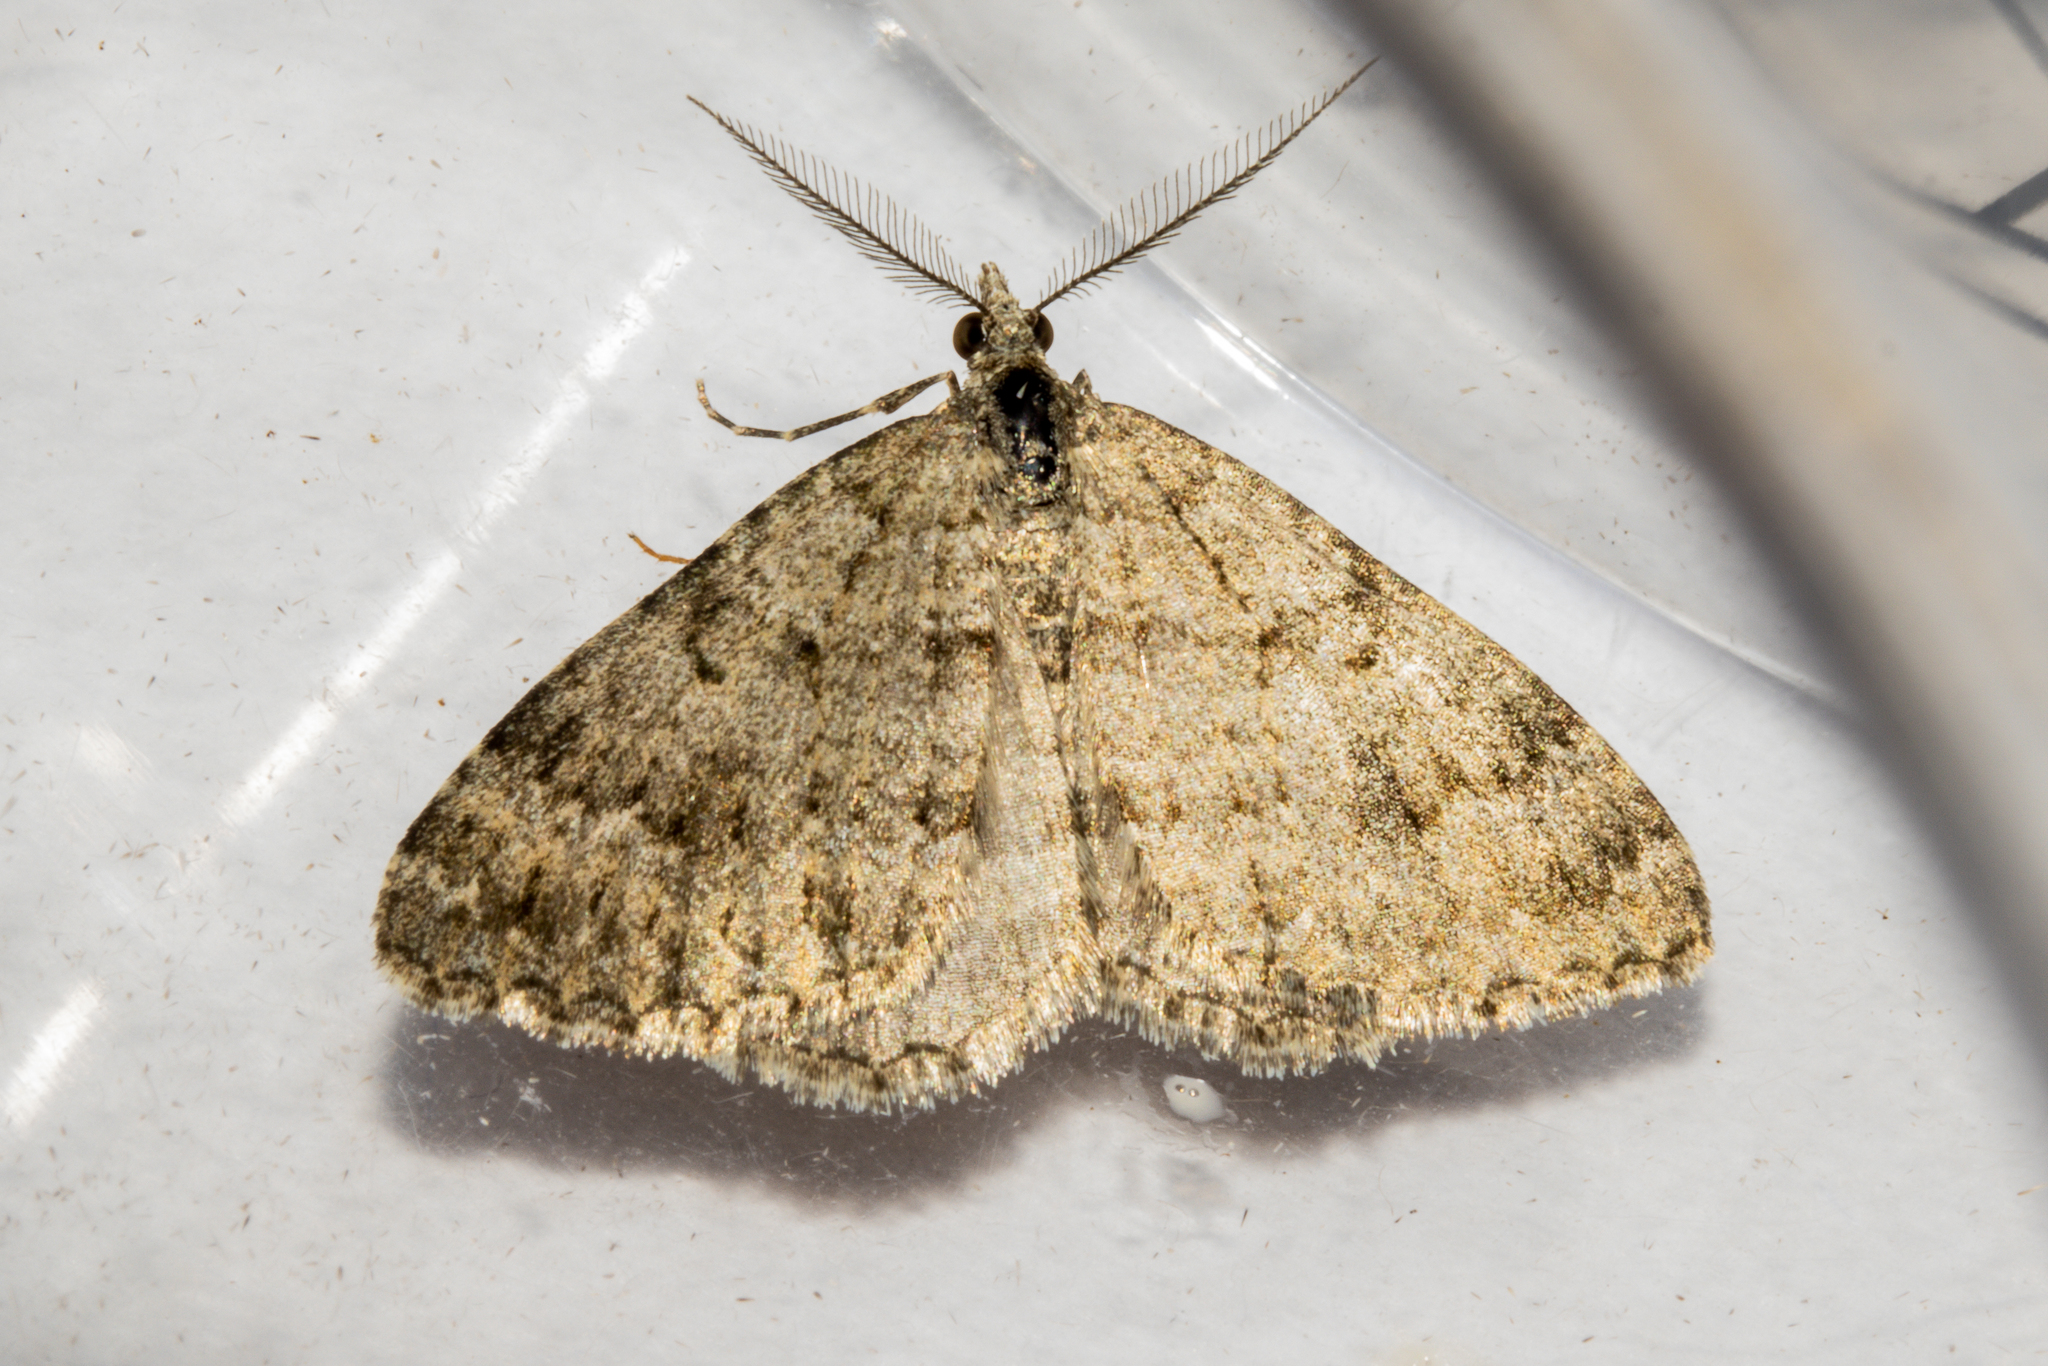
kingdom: Animalia
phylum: Arthropoda
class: Insecta
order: Lepidoptera
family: Geometridae
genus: Helastia
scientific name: Helastia corcularia
